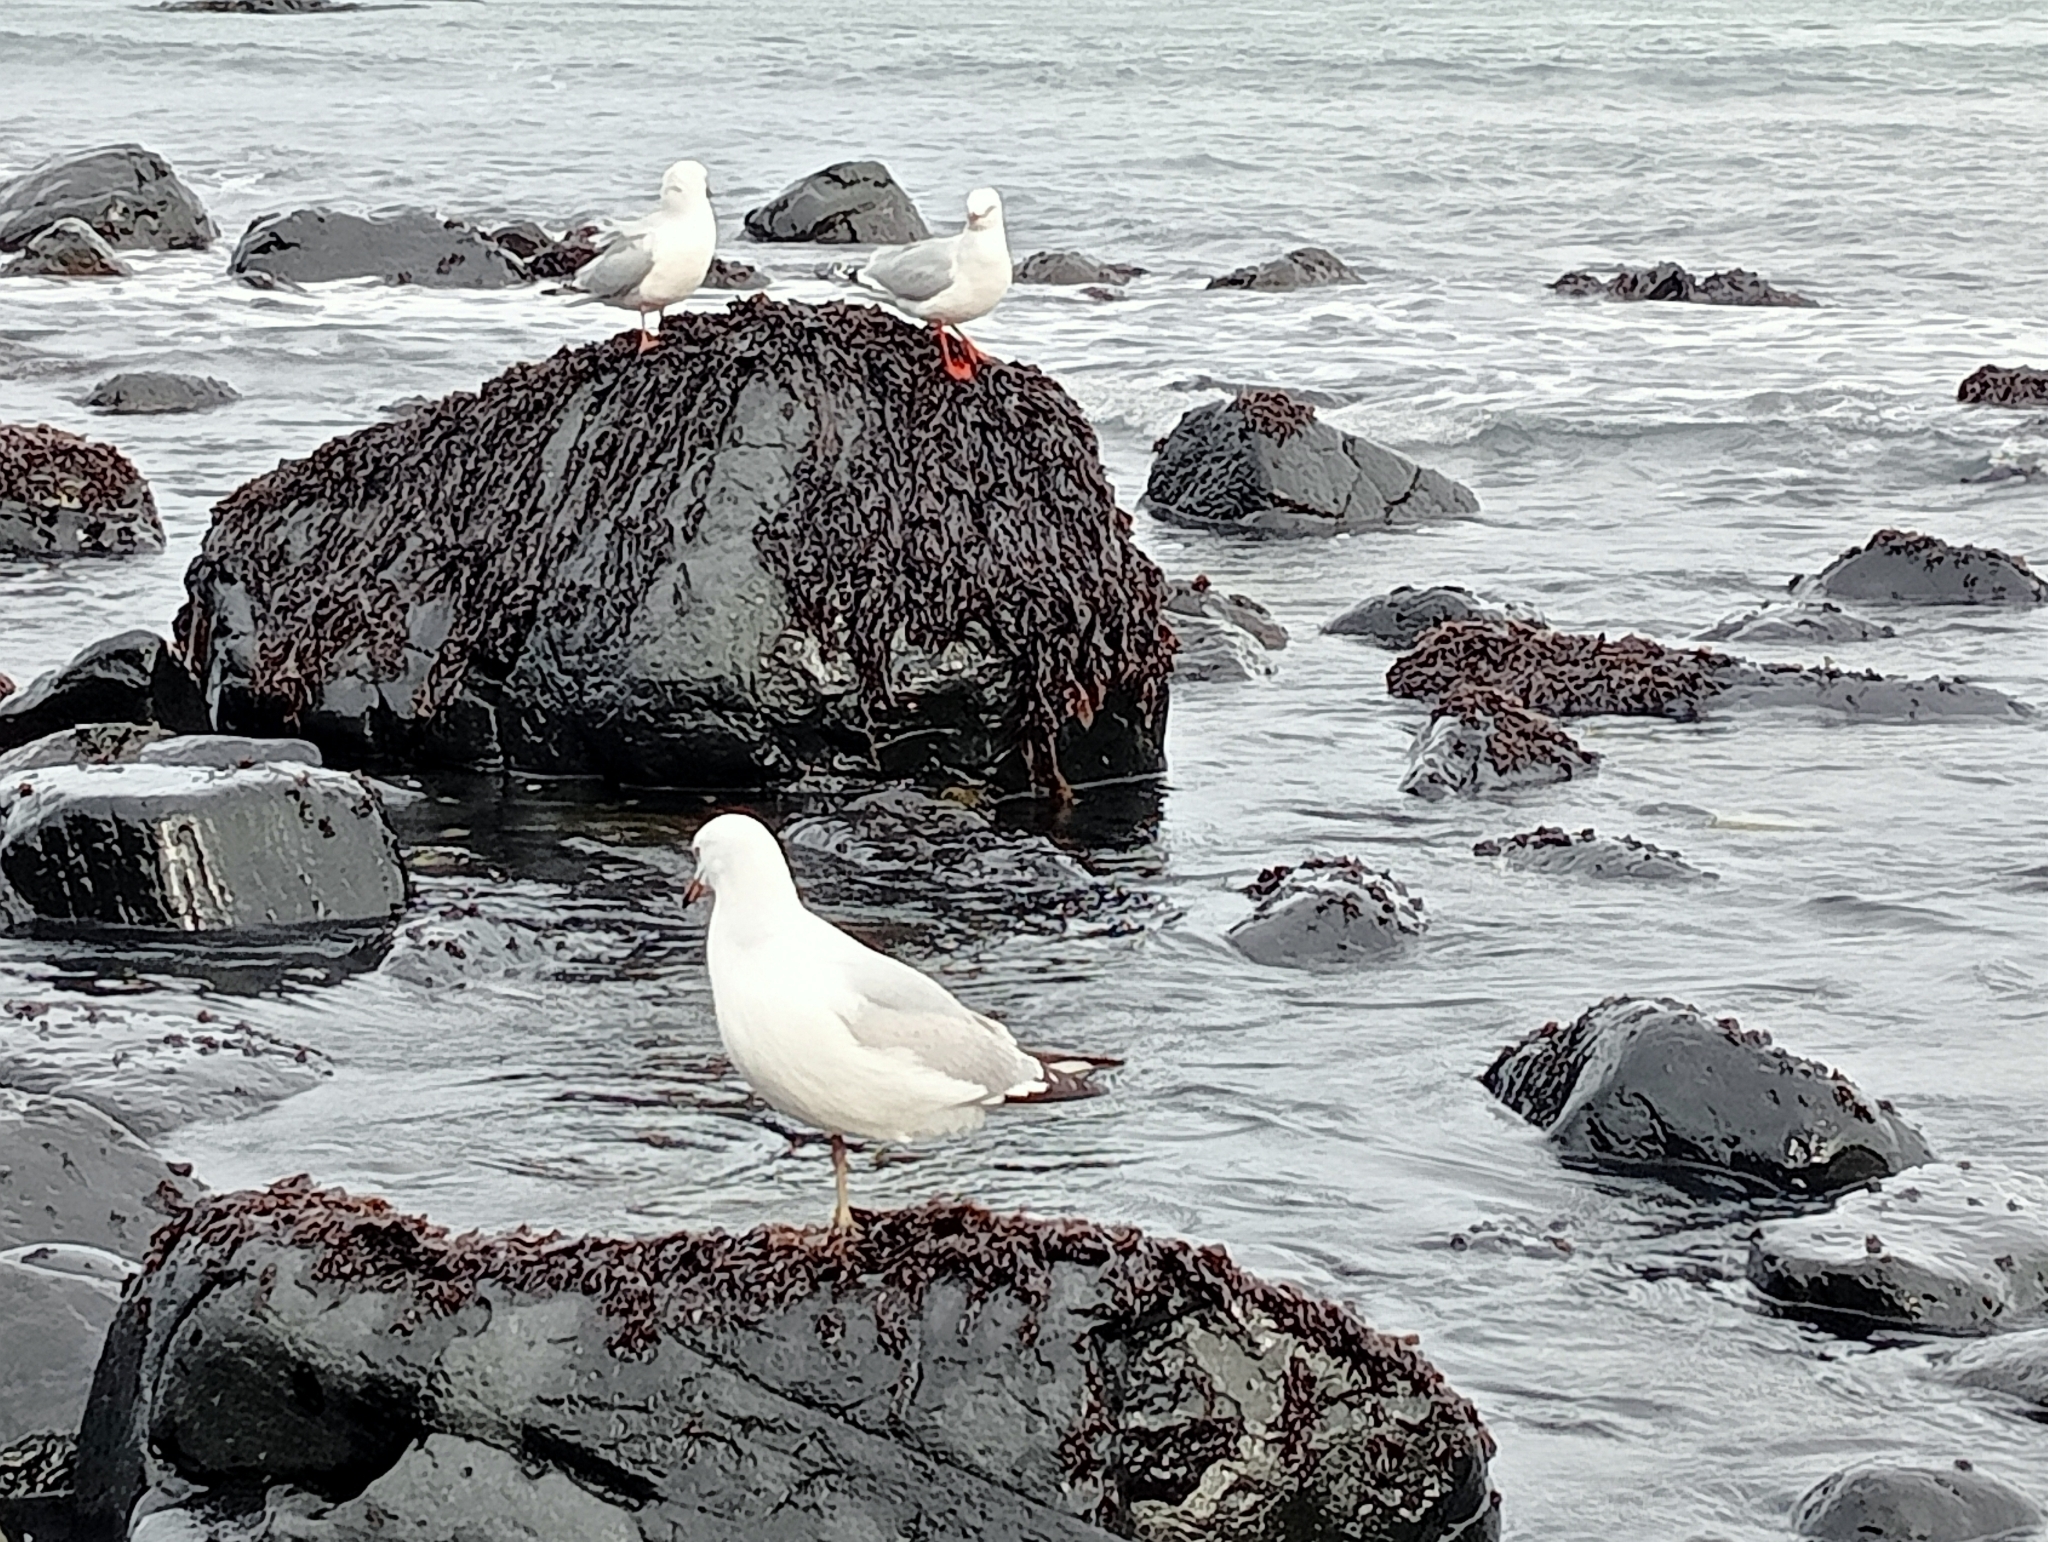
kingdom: Animalia
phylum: Chordata
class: Aves
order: Charadriiformes
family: Laridae
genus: Chroicocephalus
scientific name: Chroicocephalus novaehollandiae
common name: Silver gull
